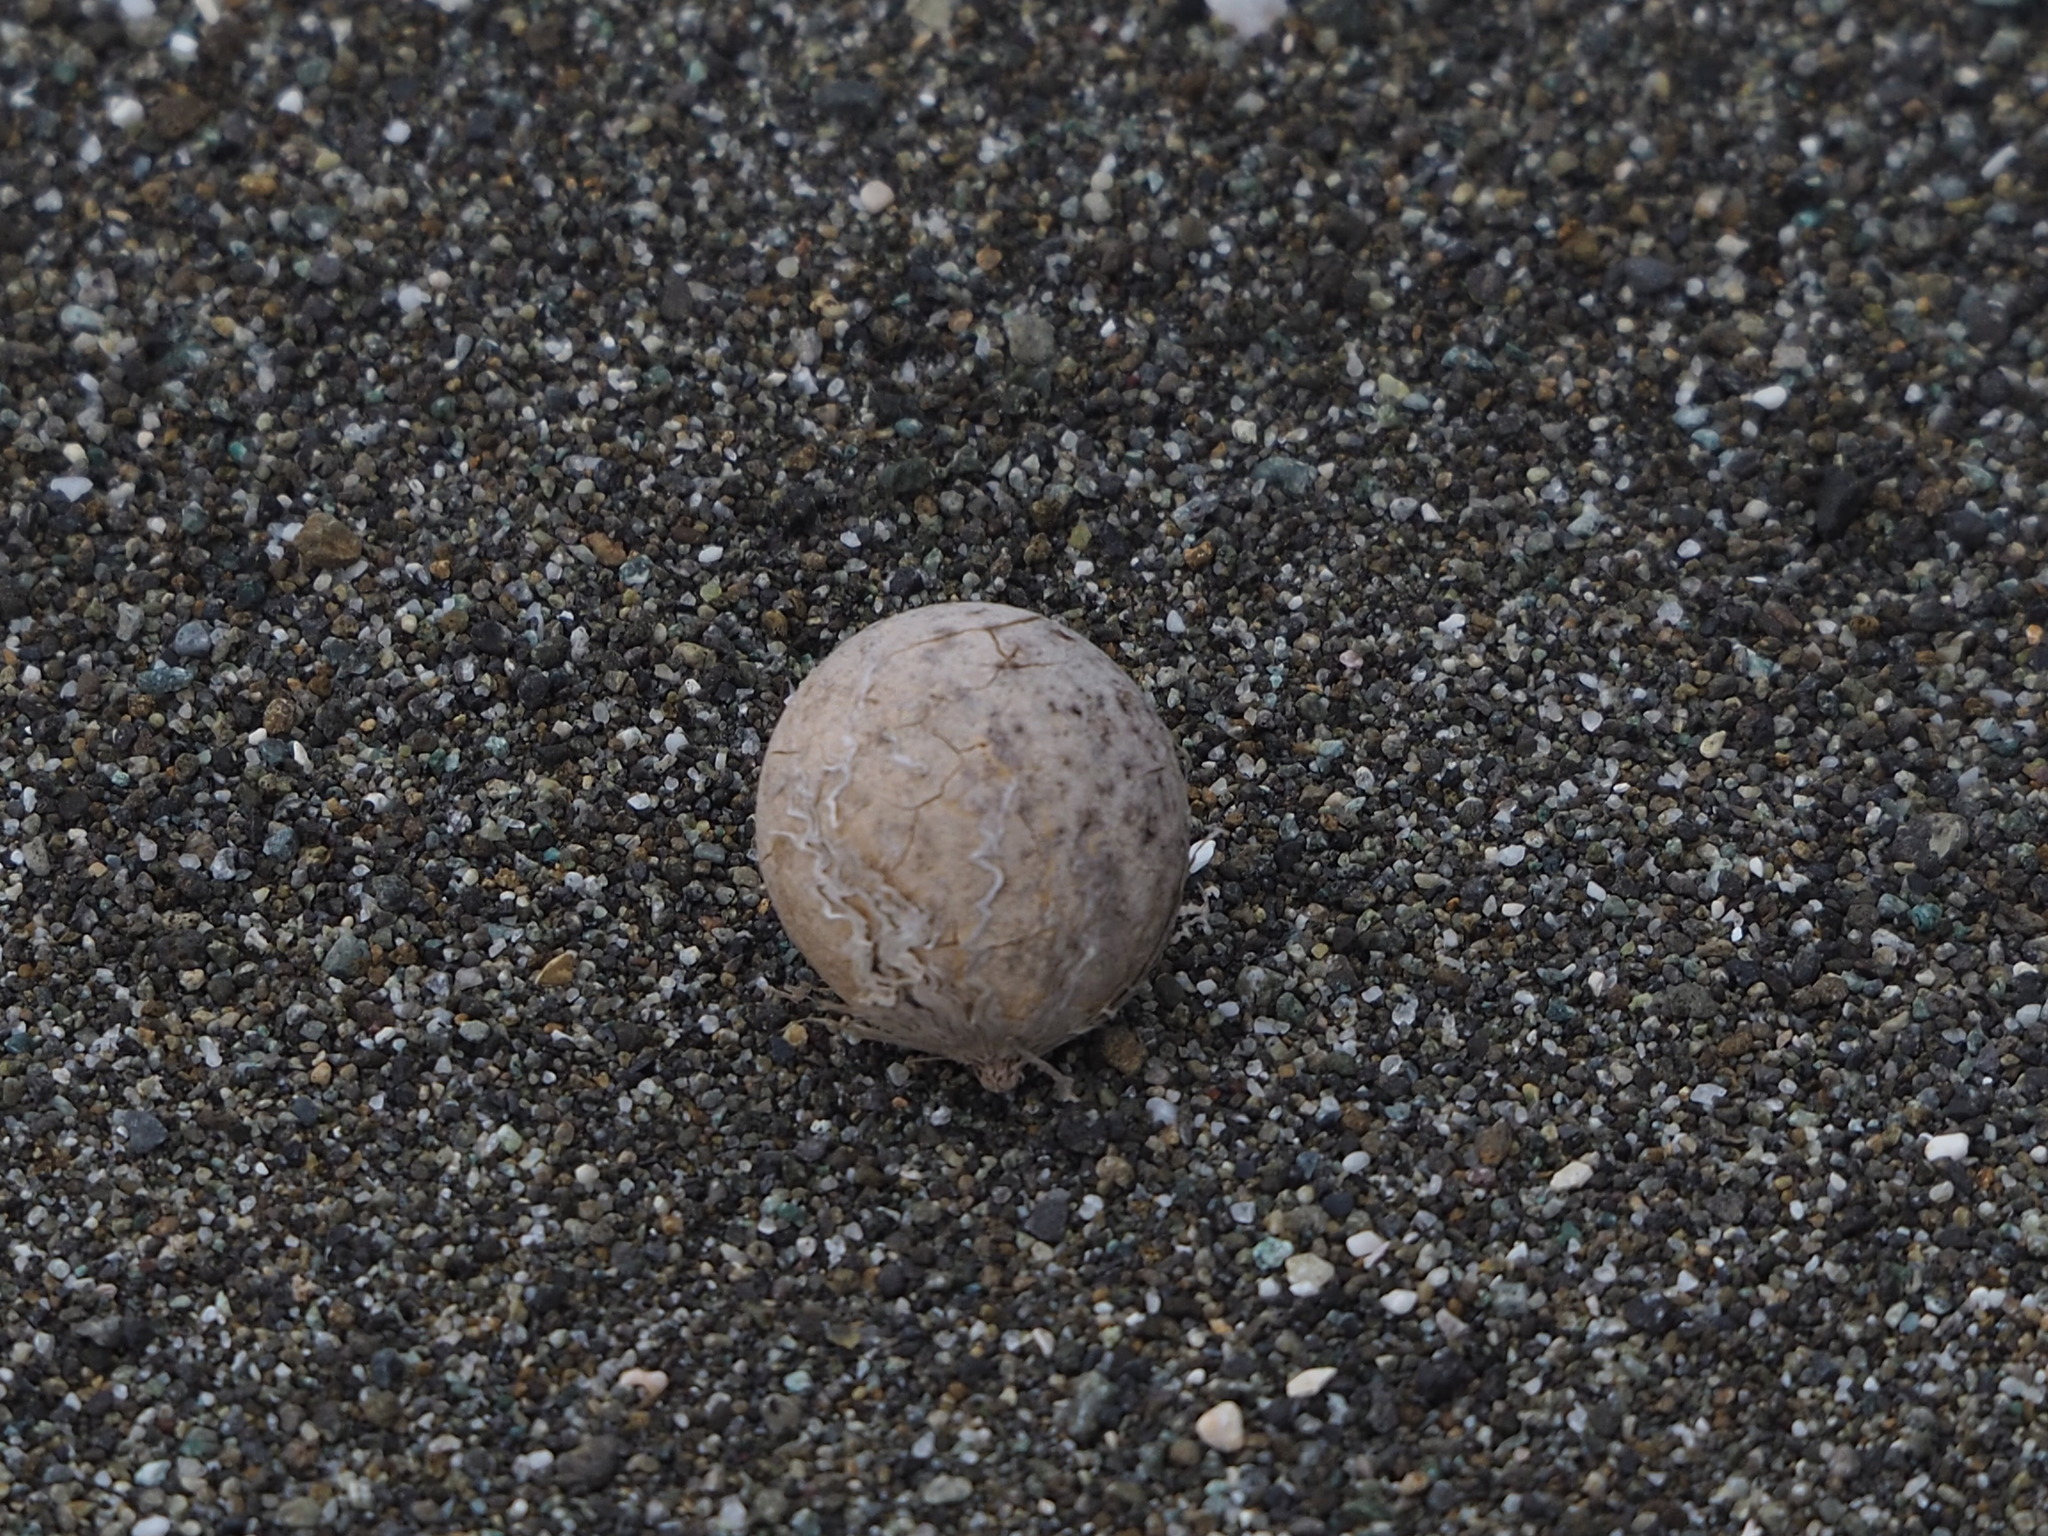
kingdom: Plantae
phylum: Tracheophyta
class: Magnoliopsida
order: Malpighiales
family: Calophyllaceae
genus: Calophyllum
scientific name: Calophyllum inophyllum
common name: Alexandrian laurel
